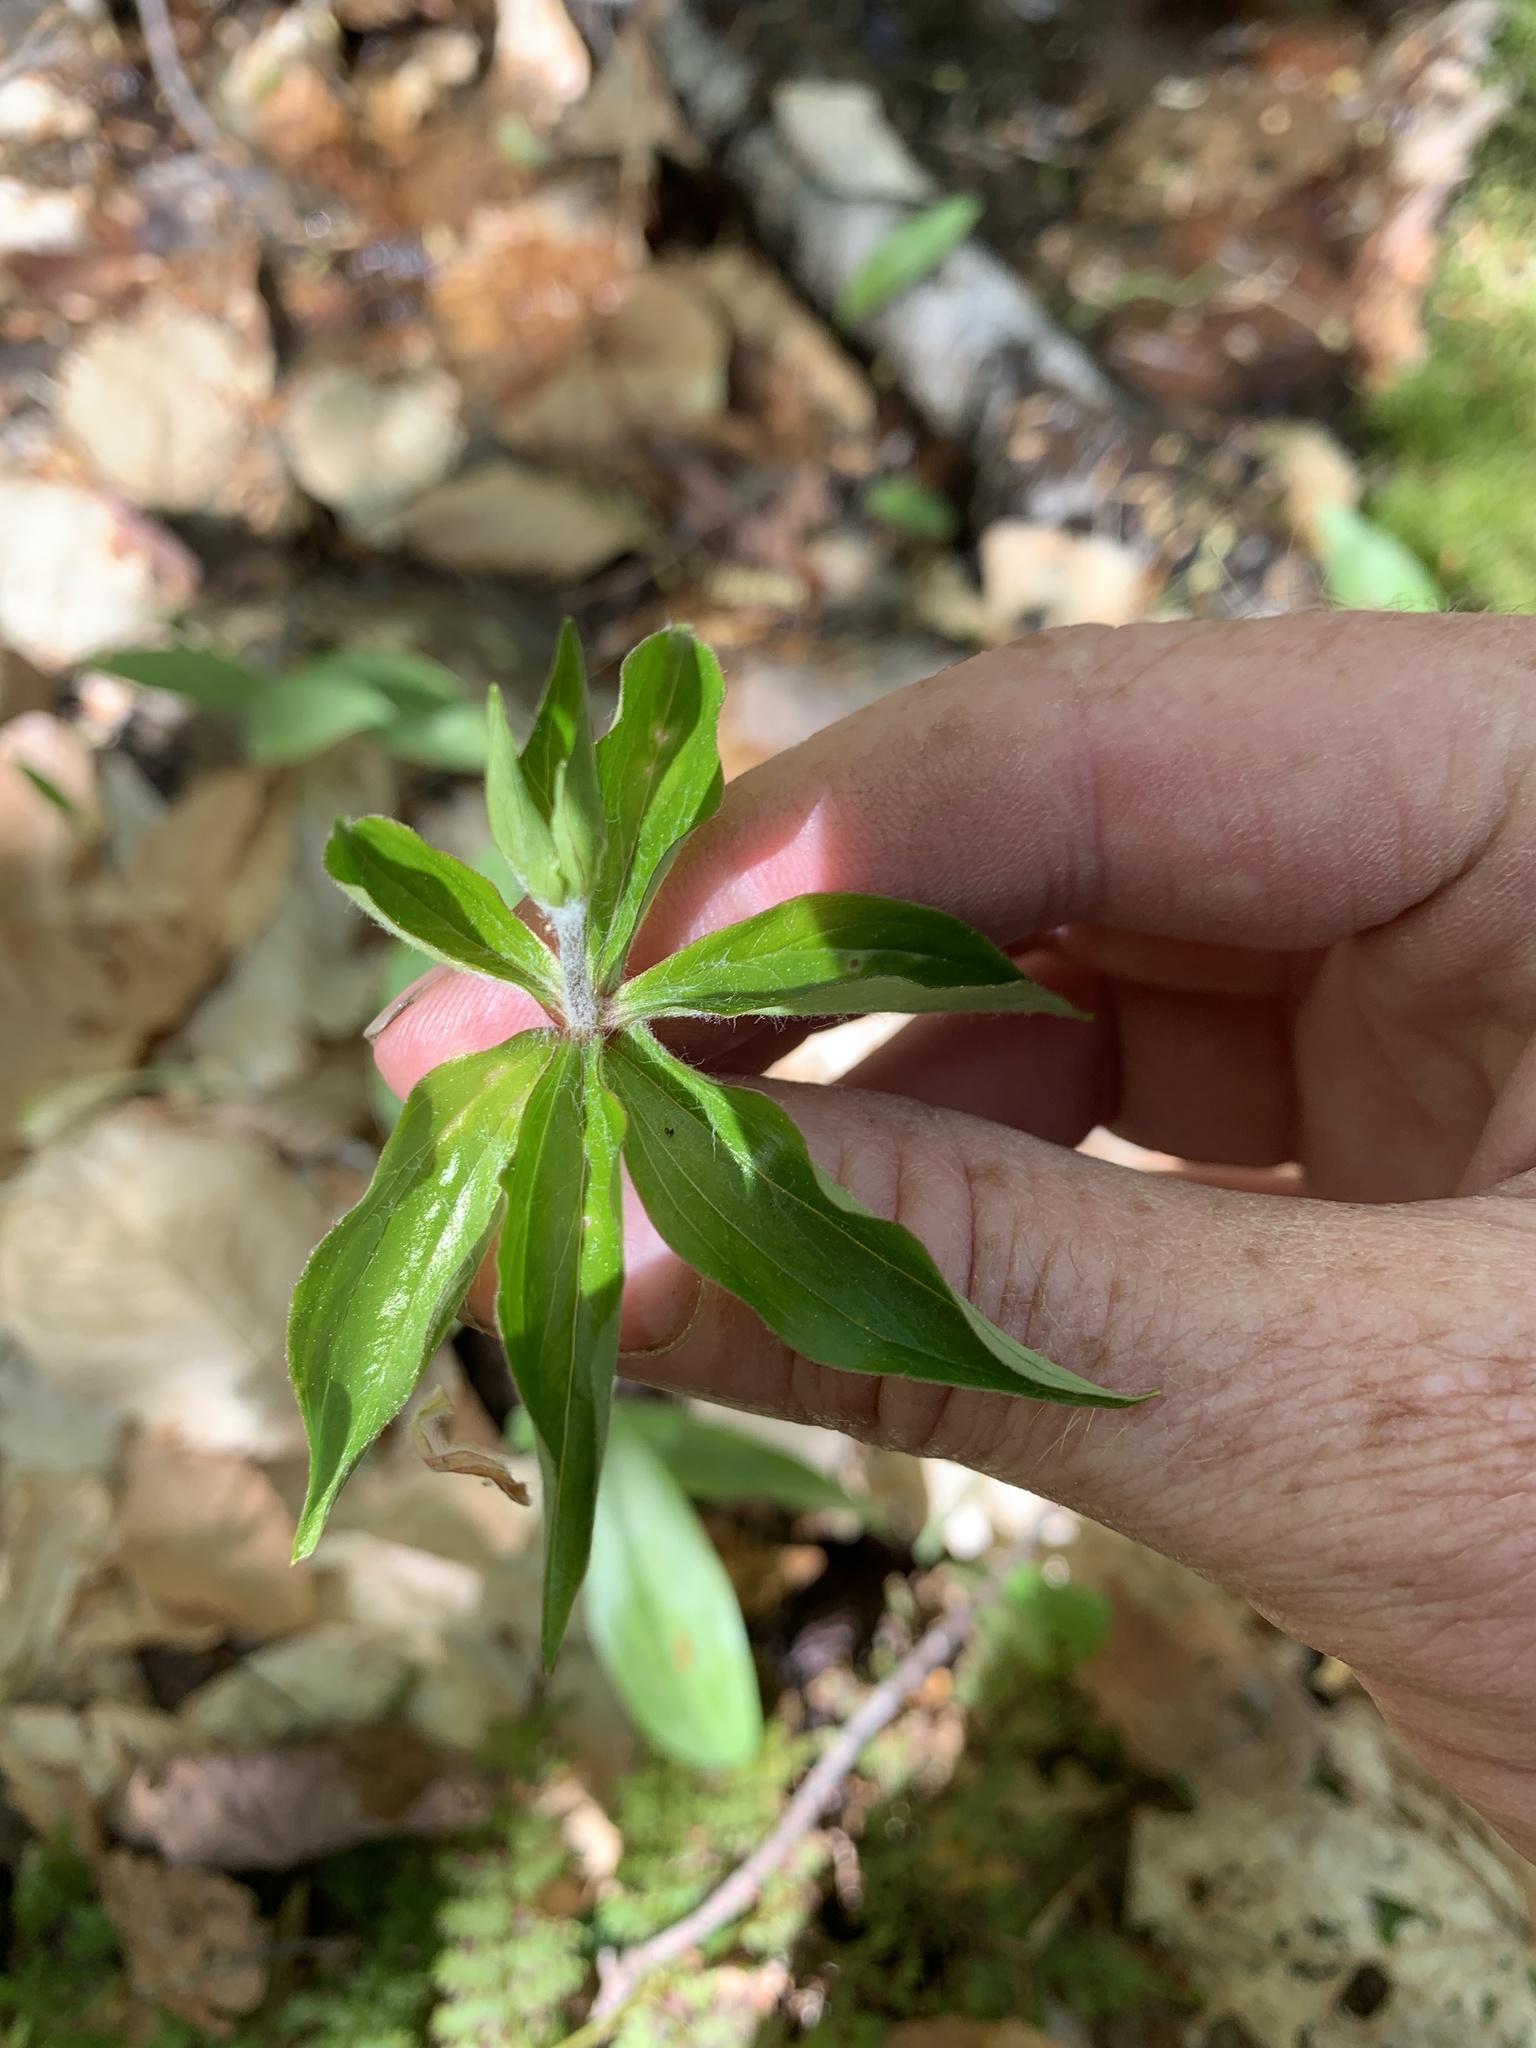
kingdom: Plantae
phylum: Tracheophyta
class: Liliopsida
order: Liliales
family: Liliaceae
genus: Medeola
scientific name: Medeola virginiana
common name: Indian cucumber-root
